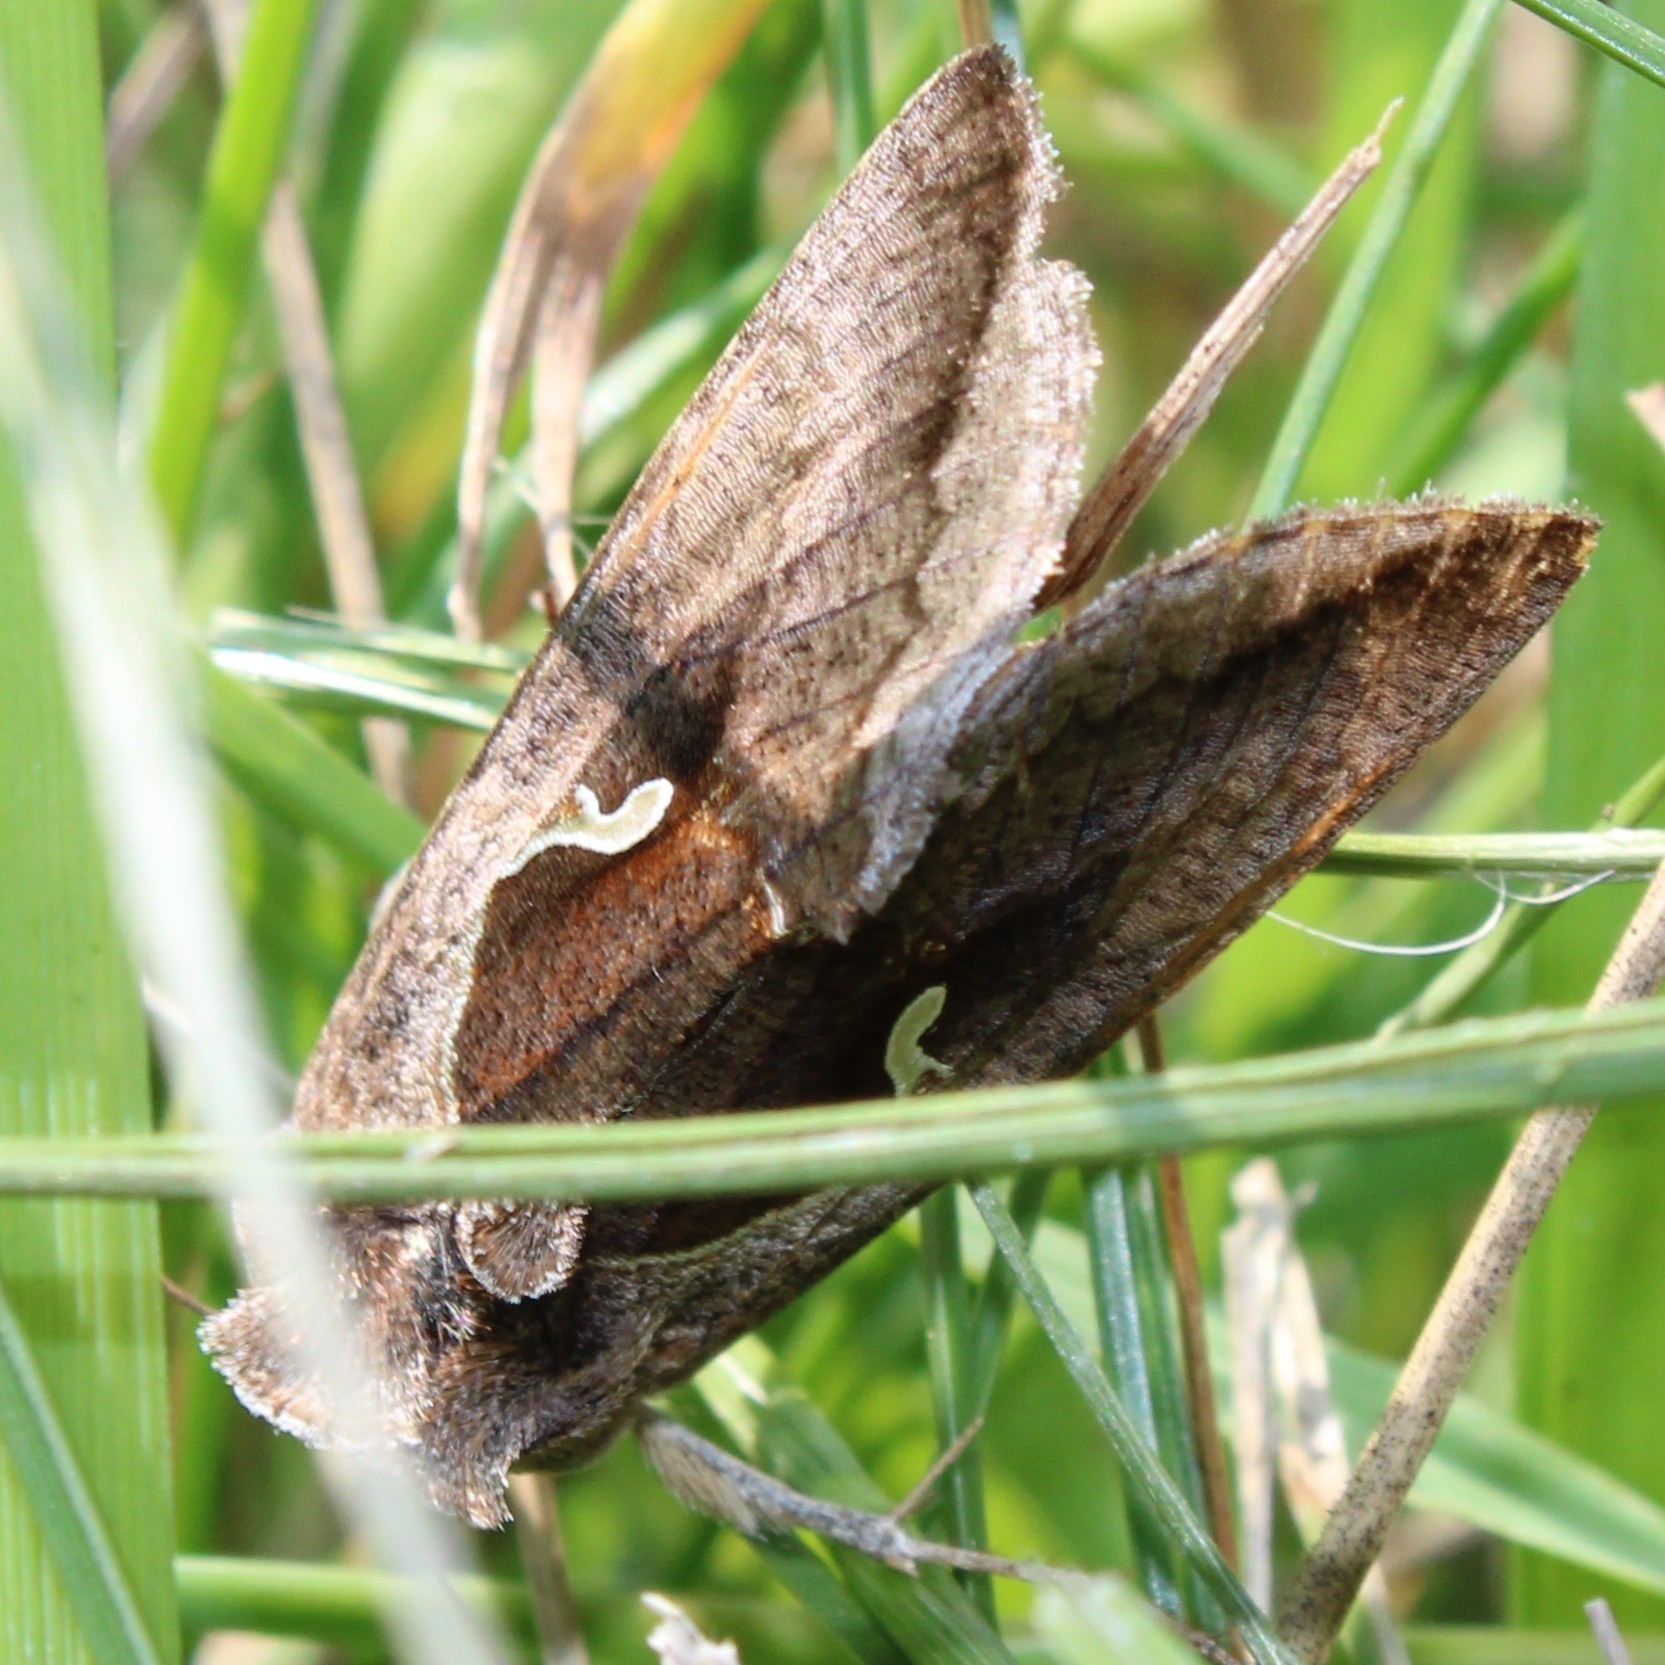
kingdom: Animalia
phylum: Arthropoda
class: Insecta
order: Lepidoptera
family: Noctuidae
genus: Anagrapha
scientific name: Anagrapha falcifera
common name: Celery looper
